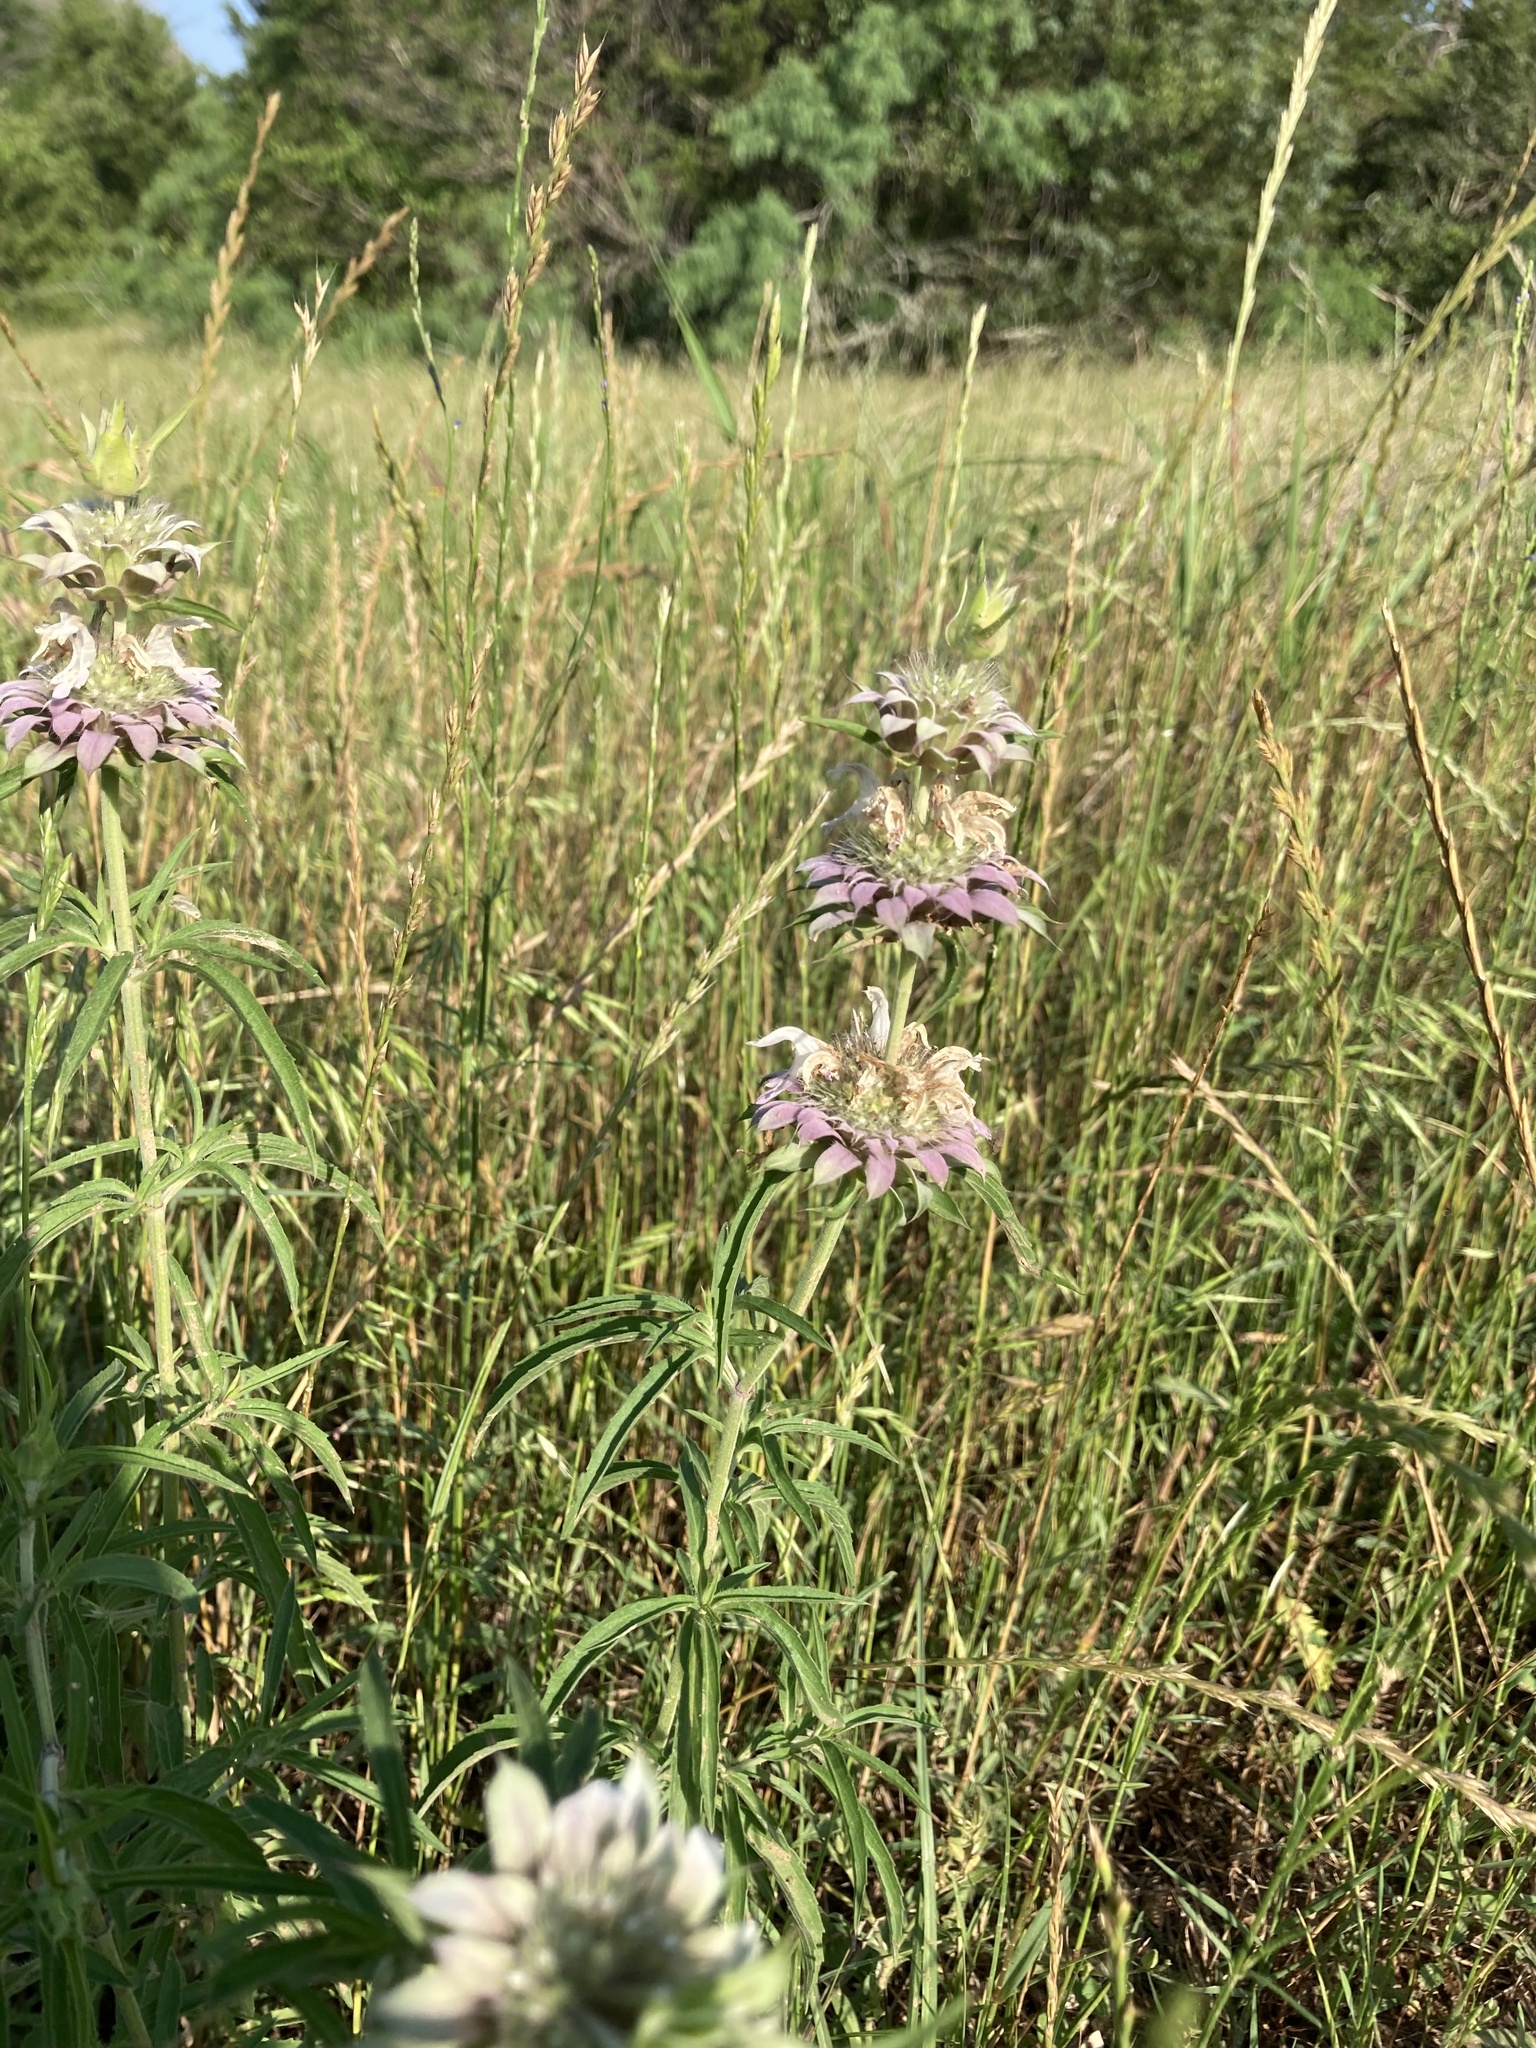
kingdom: Plantae
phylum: Tracheophyta
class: Magnoliopsida
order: Lamiales
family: Lamiaceae
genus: Monarda
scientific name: Monarda citriodora
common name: Lemon beebalm
